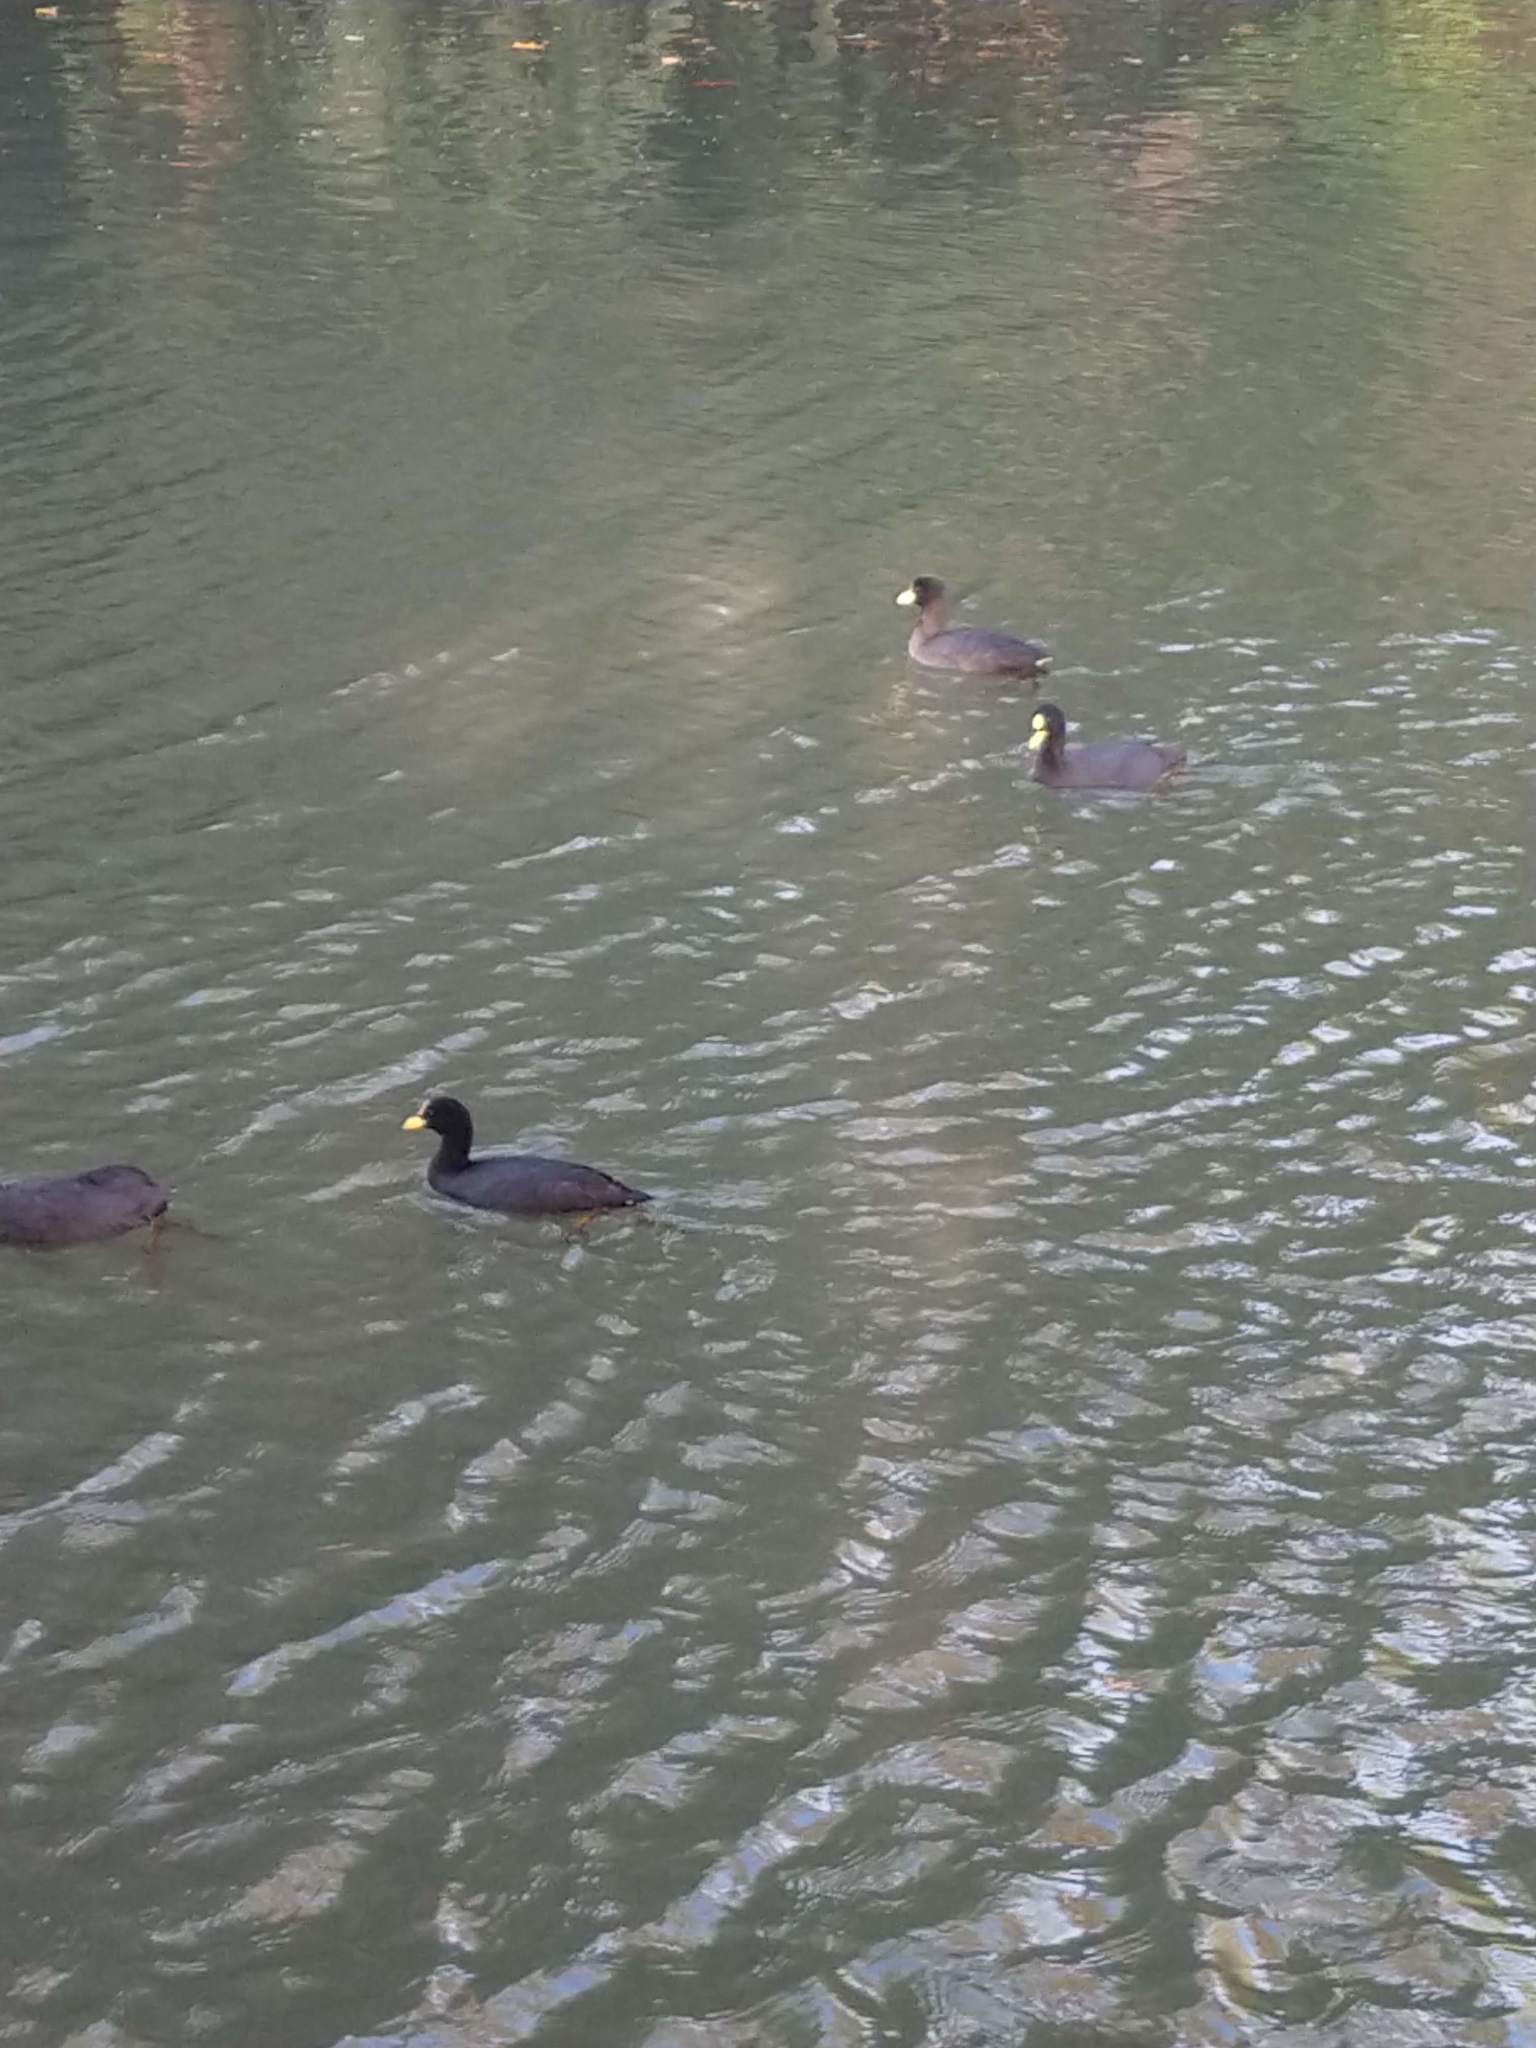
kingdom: Animalia
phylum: Chordata
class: Aves
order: Gruiformes
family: Rallidae
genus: Fulica
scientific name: Fulica armillata
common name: Red-gartered coot
